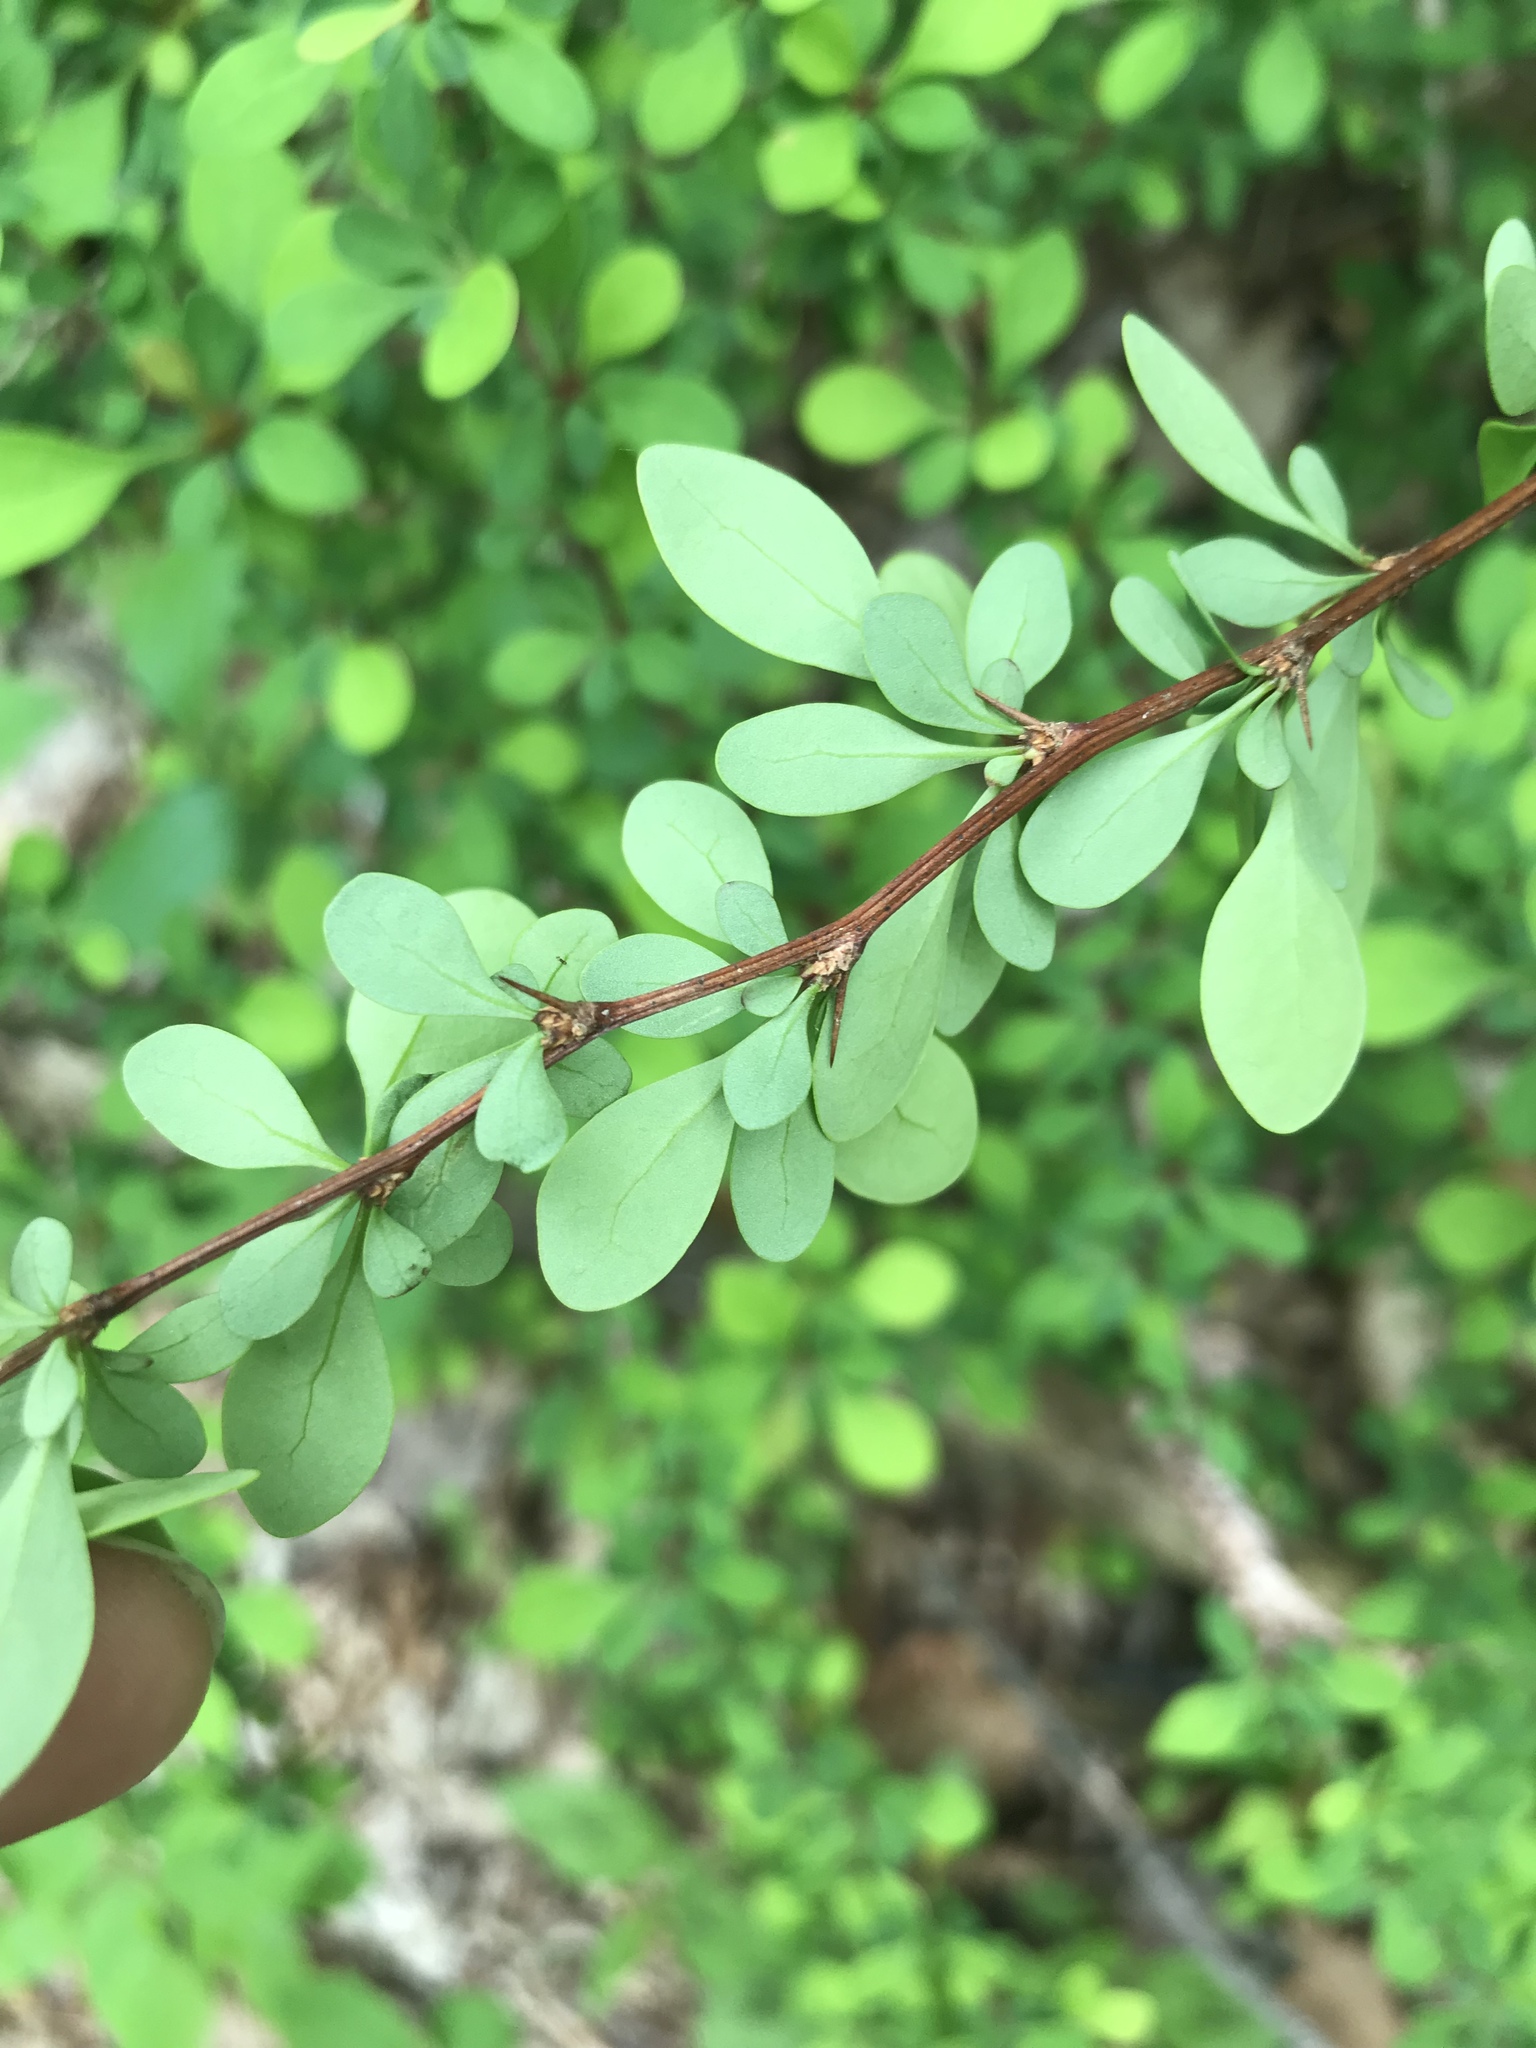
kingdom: Plantae
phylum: Tracheophyta
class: Magnoliopsida
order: Ranunculales
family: Berberidaceae
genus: Berberis
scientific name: Berberis thunbergii
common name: Japanese barberry
